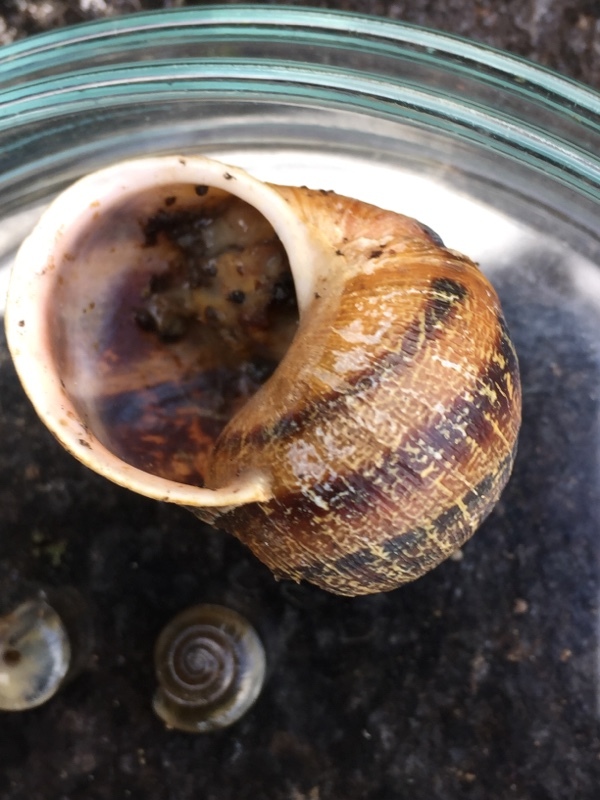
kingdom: Animalia
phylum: Mollusca
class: Gastropoda
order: Stylommatophora
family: Helicidae
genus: Cornu
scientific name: Cornu aspersum
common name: Brown garden snail
